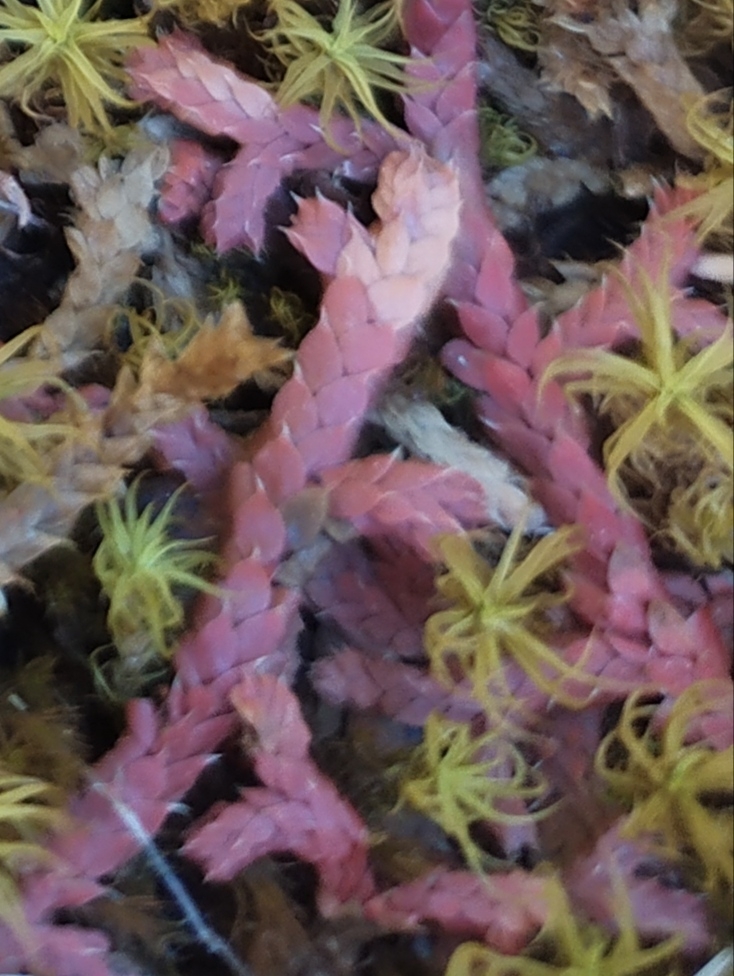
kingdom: Plantae
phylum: Tracheophyta
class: Lycopodiopsida
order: Selaginellales
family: Selaginellaceae
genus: Selaginella
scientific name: Selaginella denticulata
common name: Toothed-leaved clubmoss
